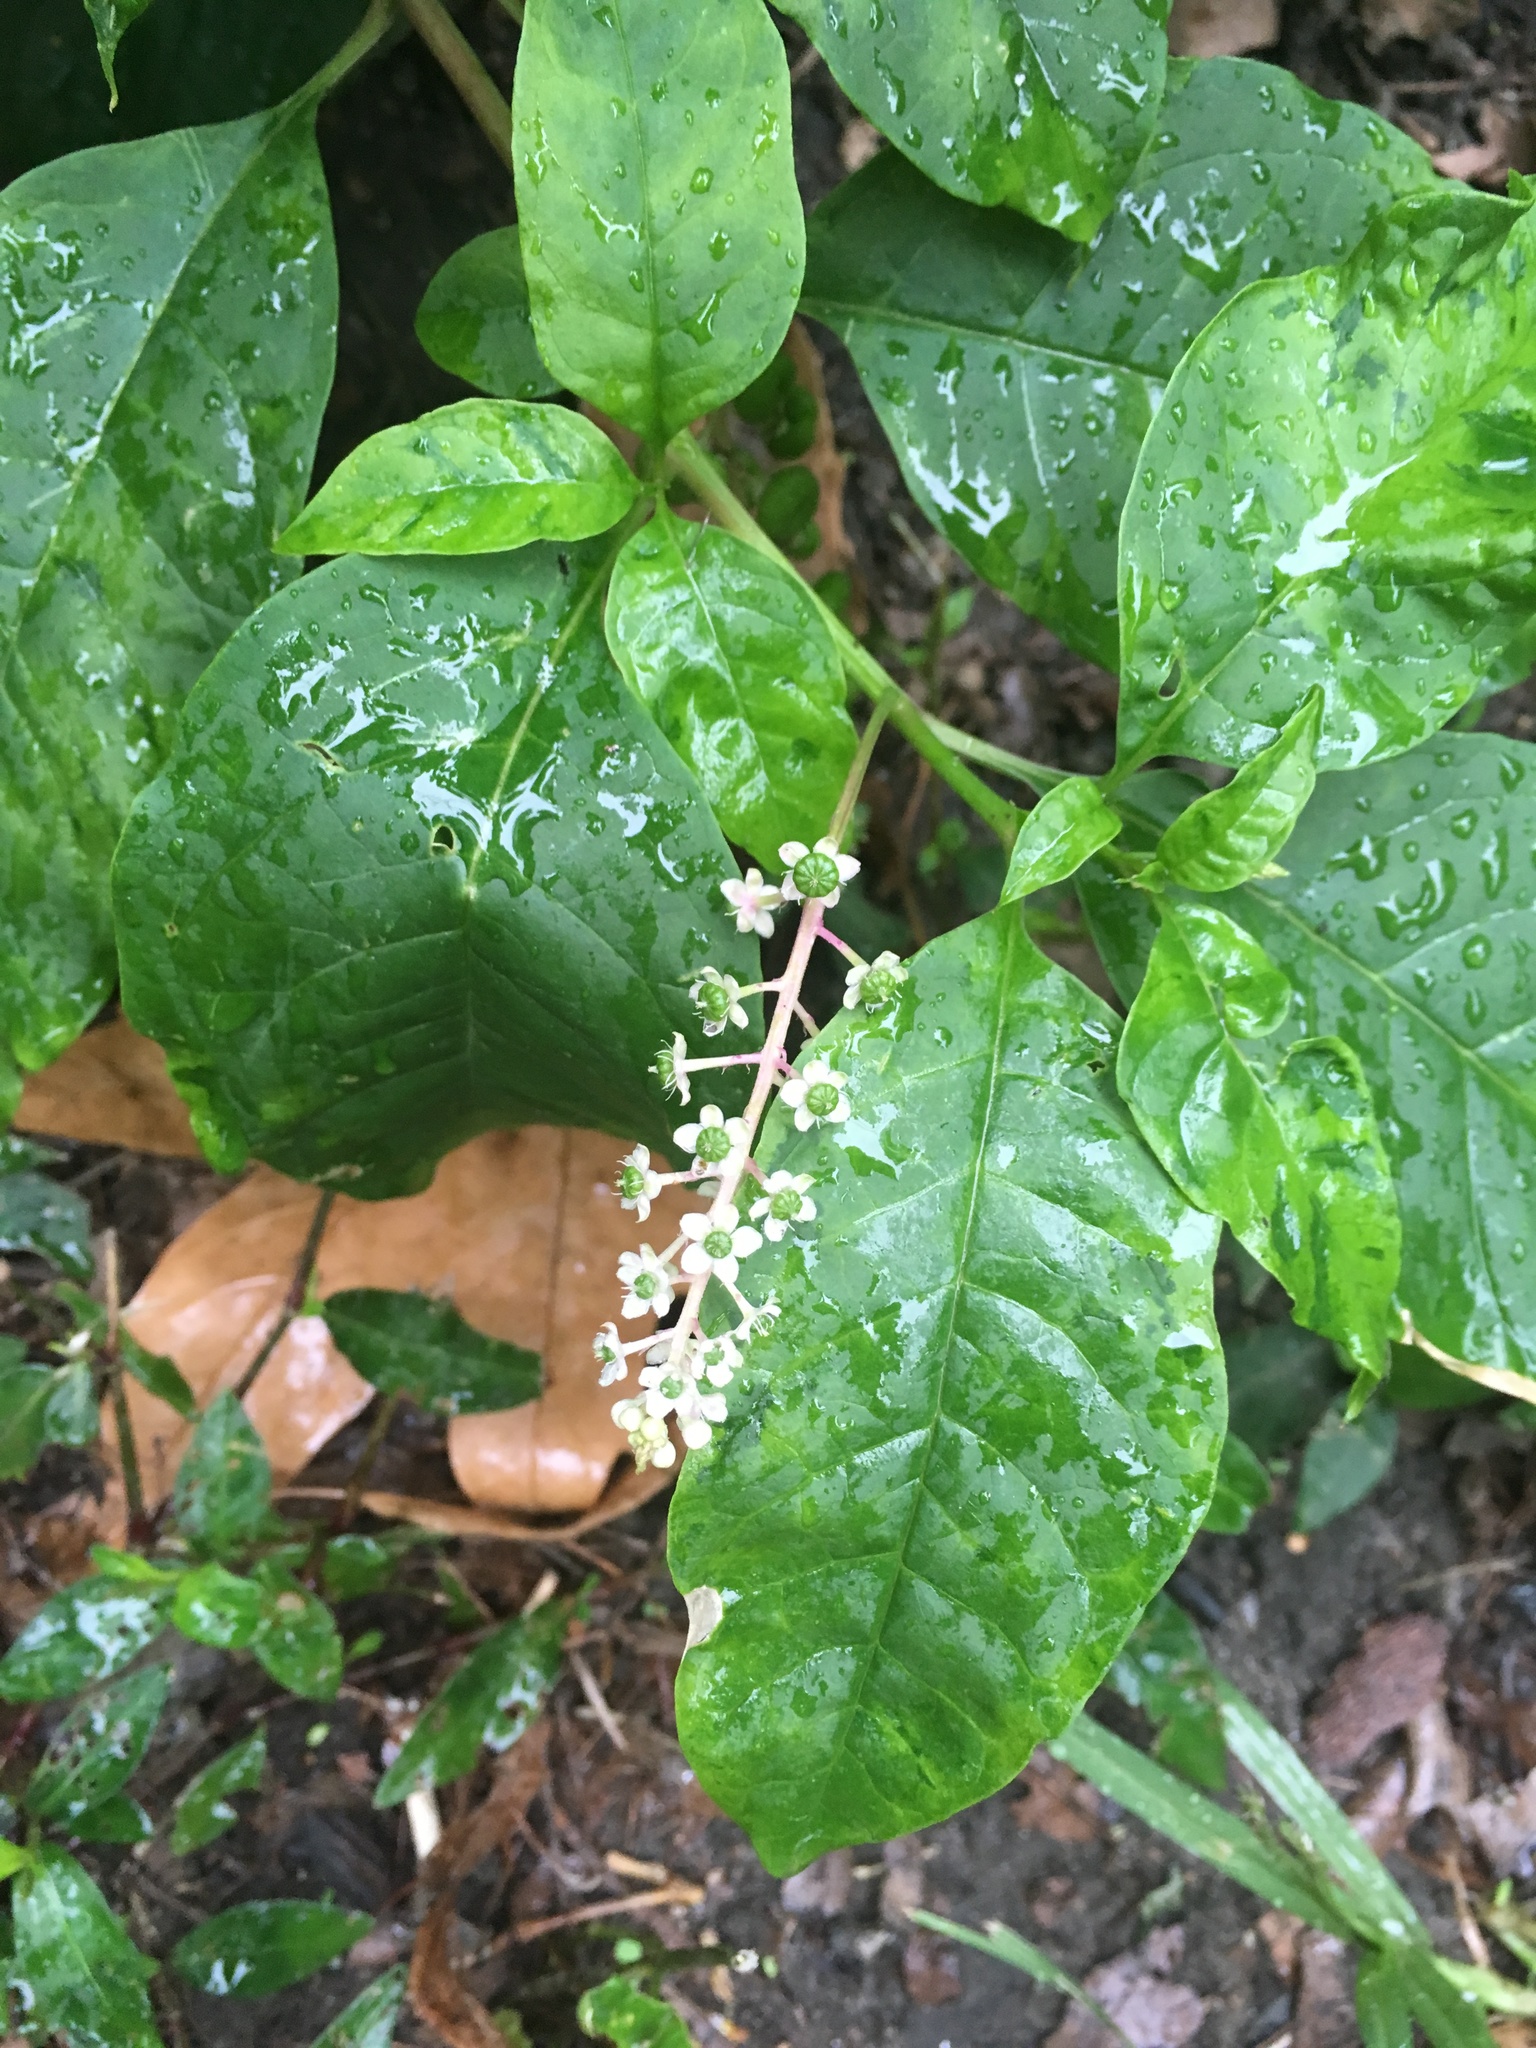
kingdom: Plantae
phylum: Tracheophyta
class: Magnoliopsida
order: Caryophyllales
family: Phytolaccaceae
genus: Phytolacca
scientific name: Phytolacca americana
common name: American pokeweed
